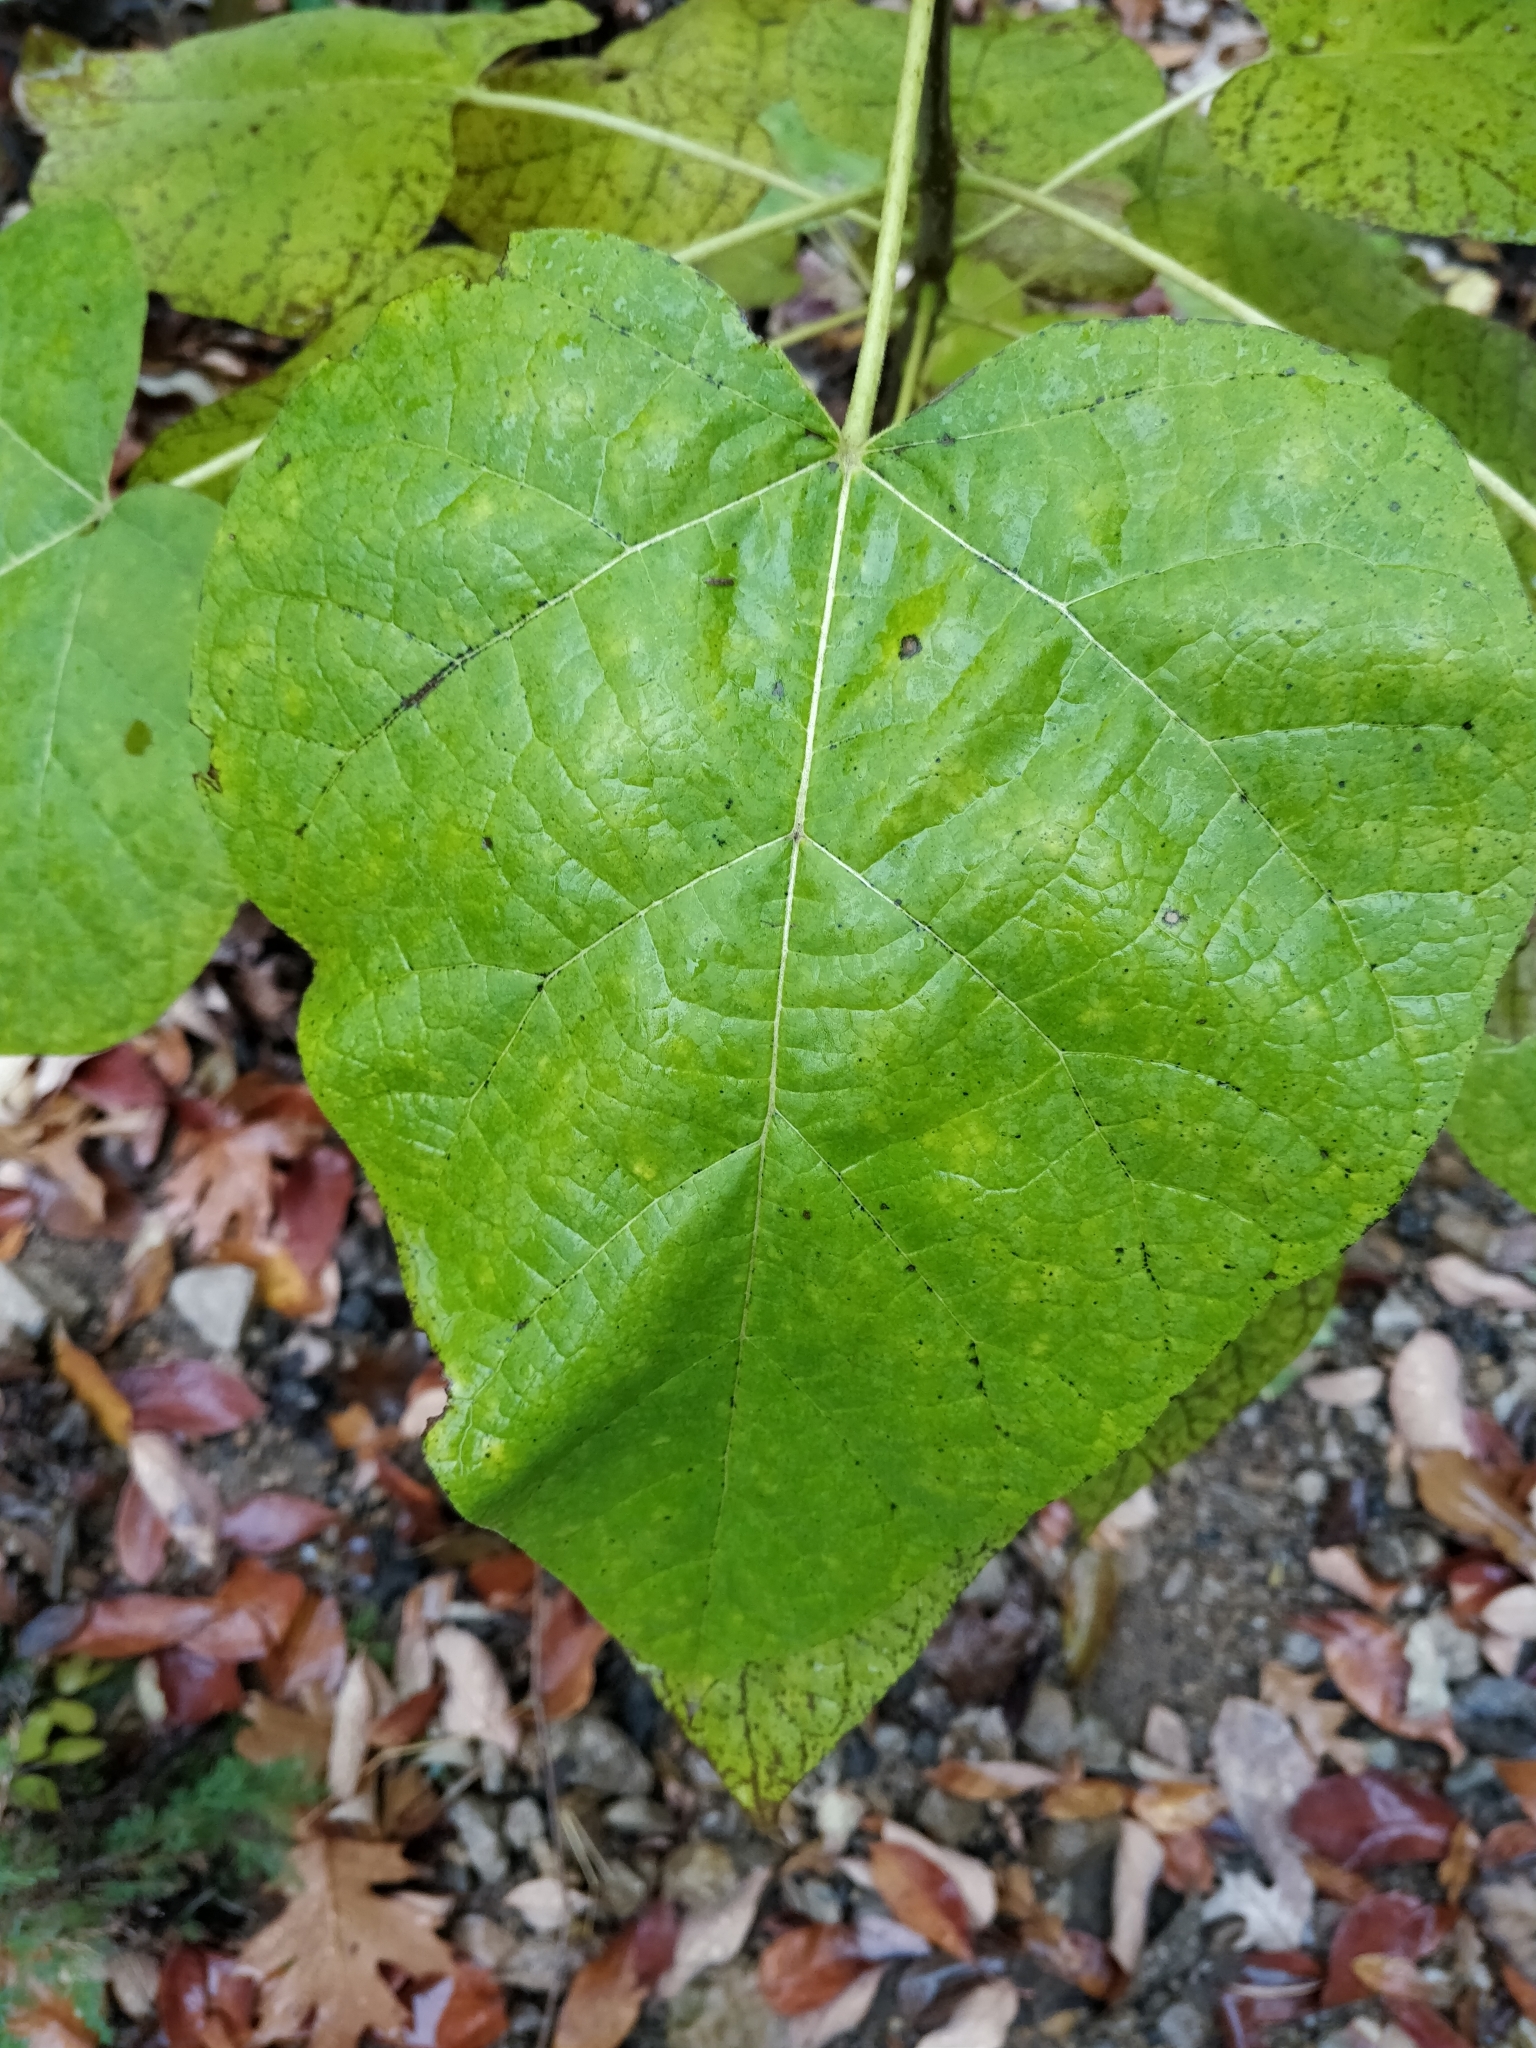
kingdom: Plantae
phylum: Tracheophyta
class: Magnoliopsida
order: Lamiales
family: Bignoniaceae
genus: Catalpa
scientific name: Catalpa speciosa
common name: Northern catalpa
